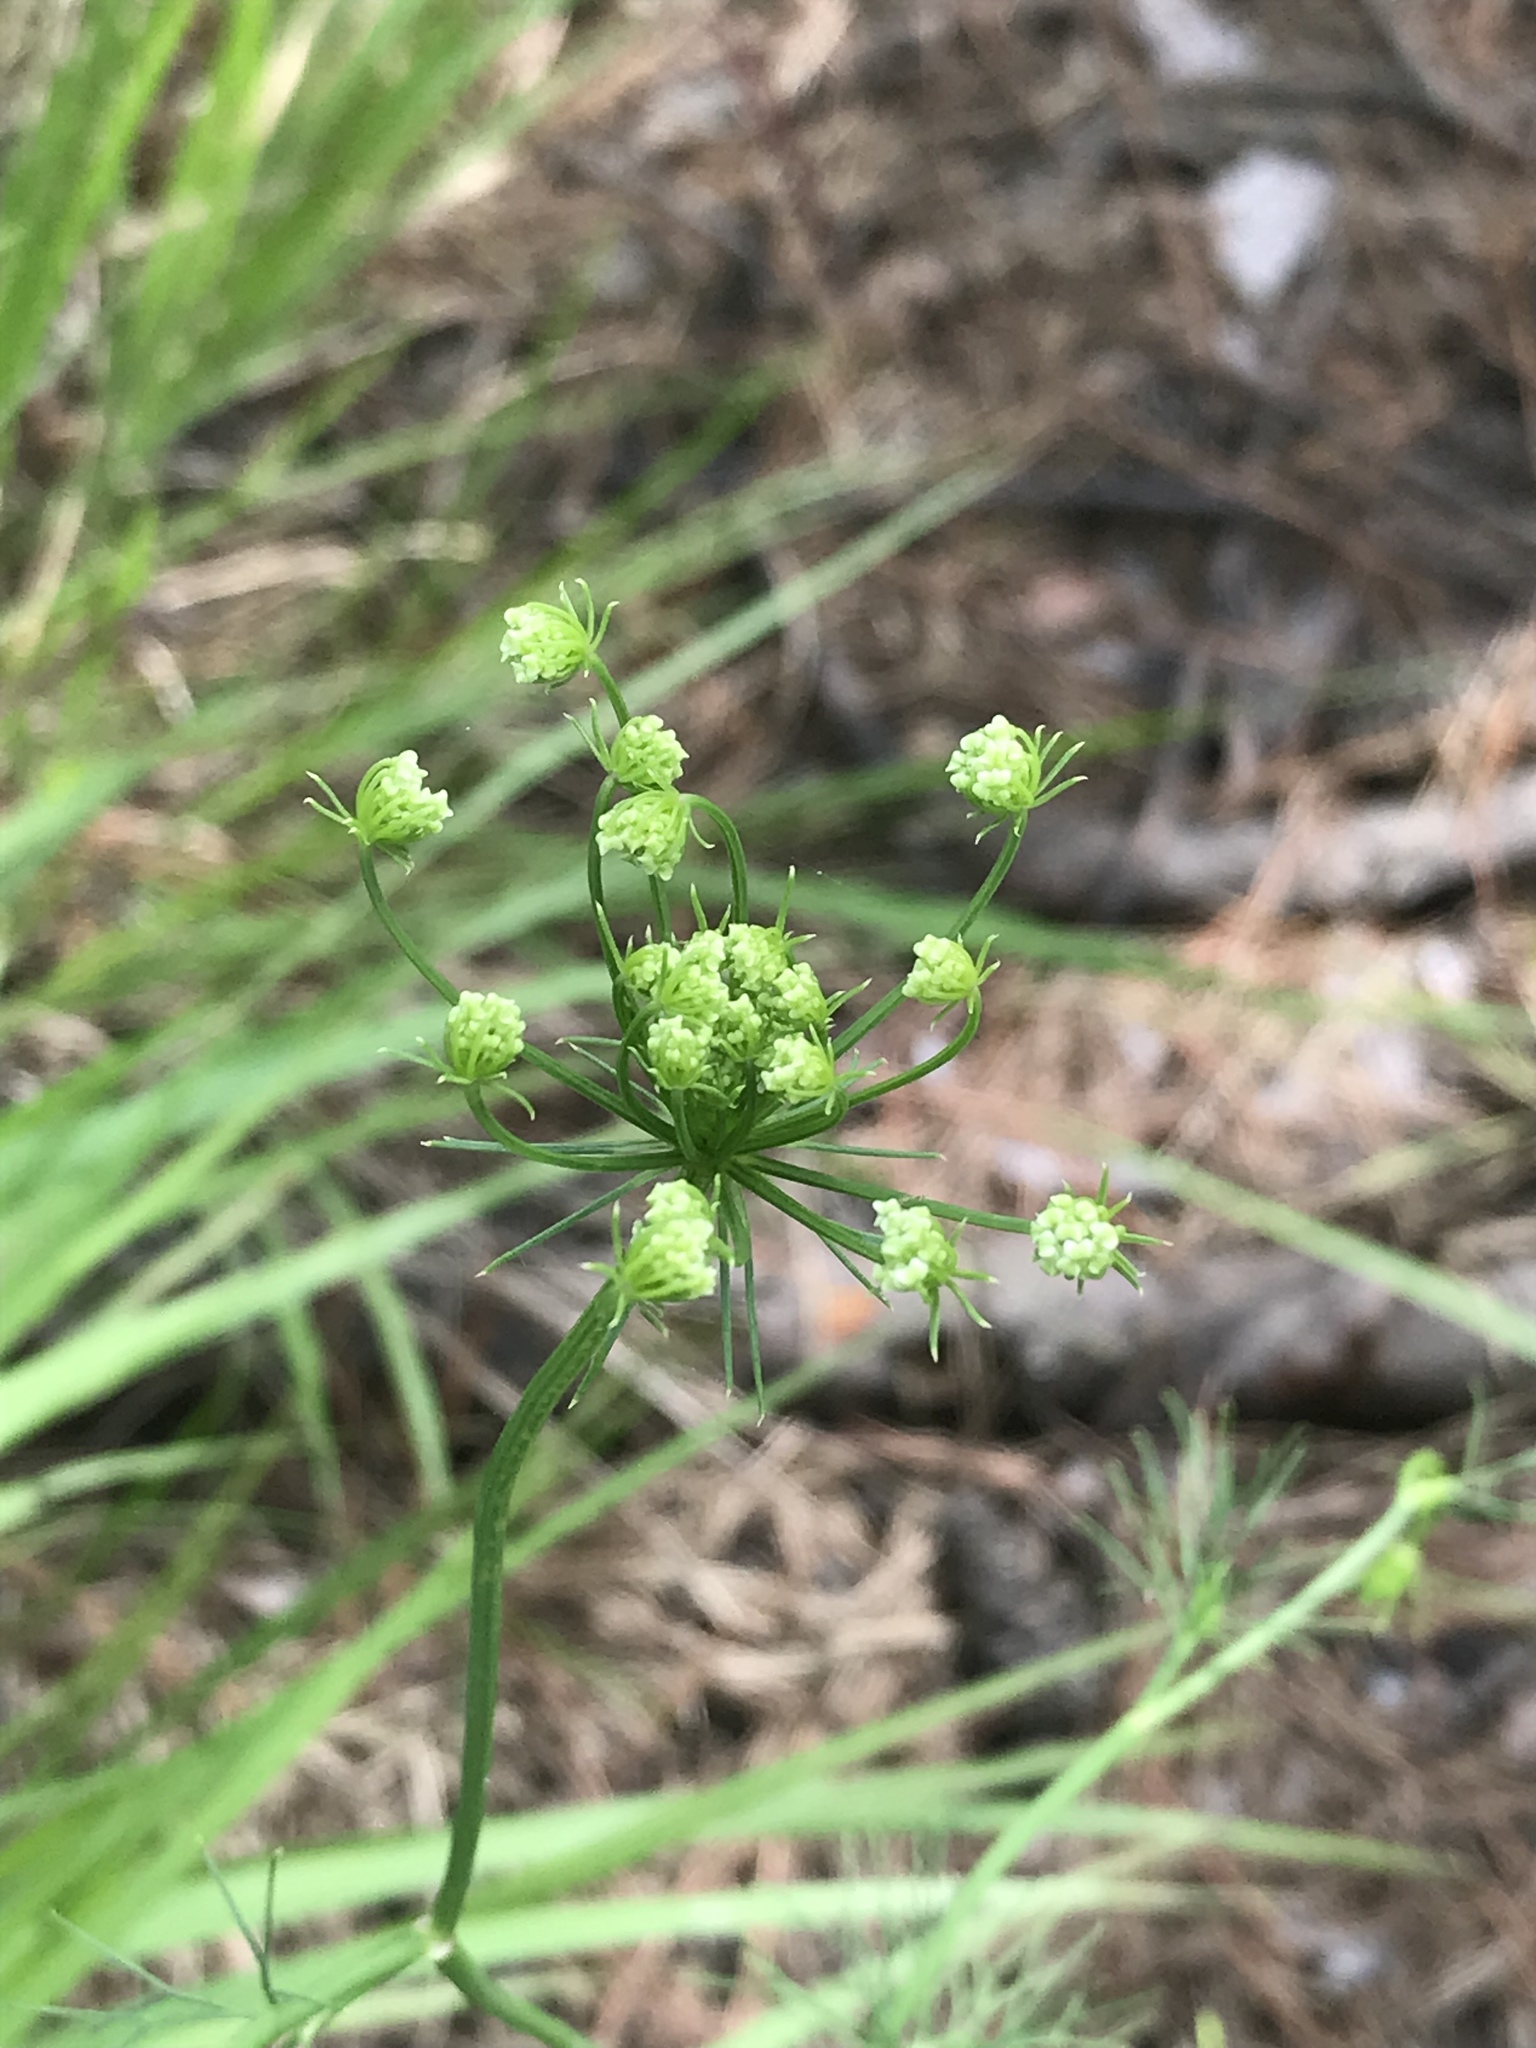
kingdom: Plantae
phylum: Tracheophyta
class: Magnoliopsida
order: Apiales
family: Apiaceae
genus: Ptilimnium
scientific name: Ptilimnium costatum
